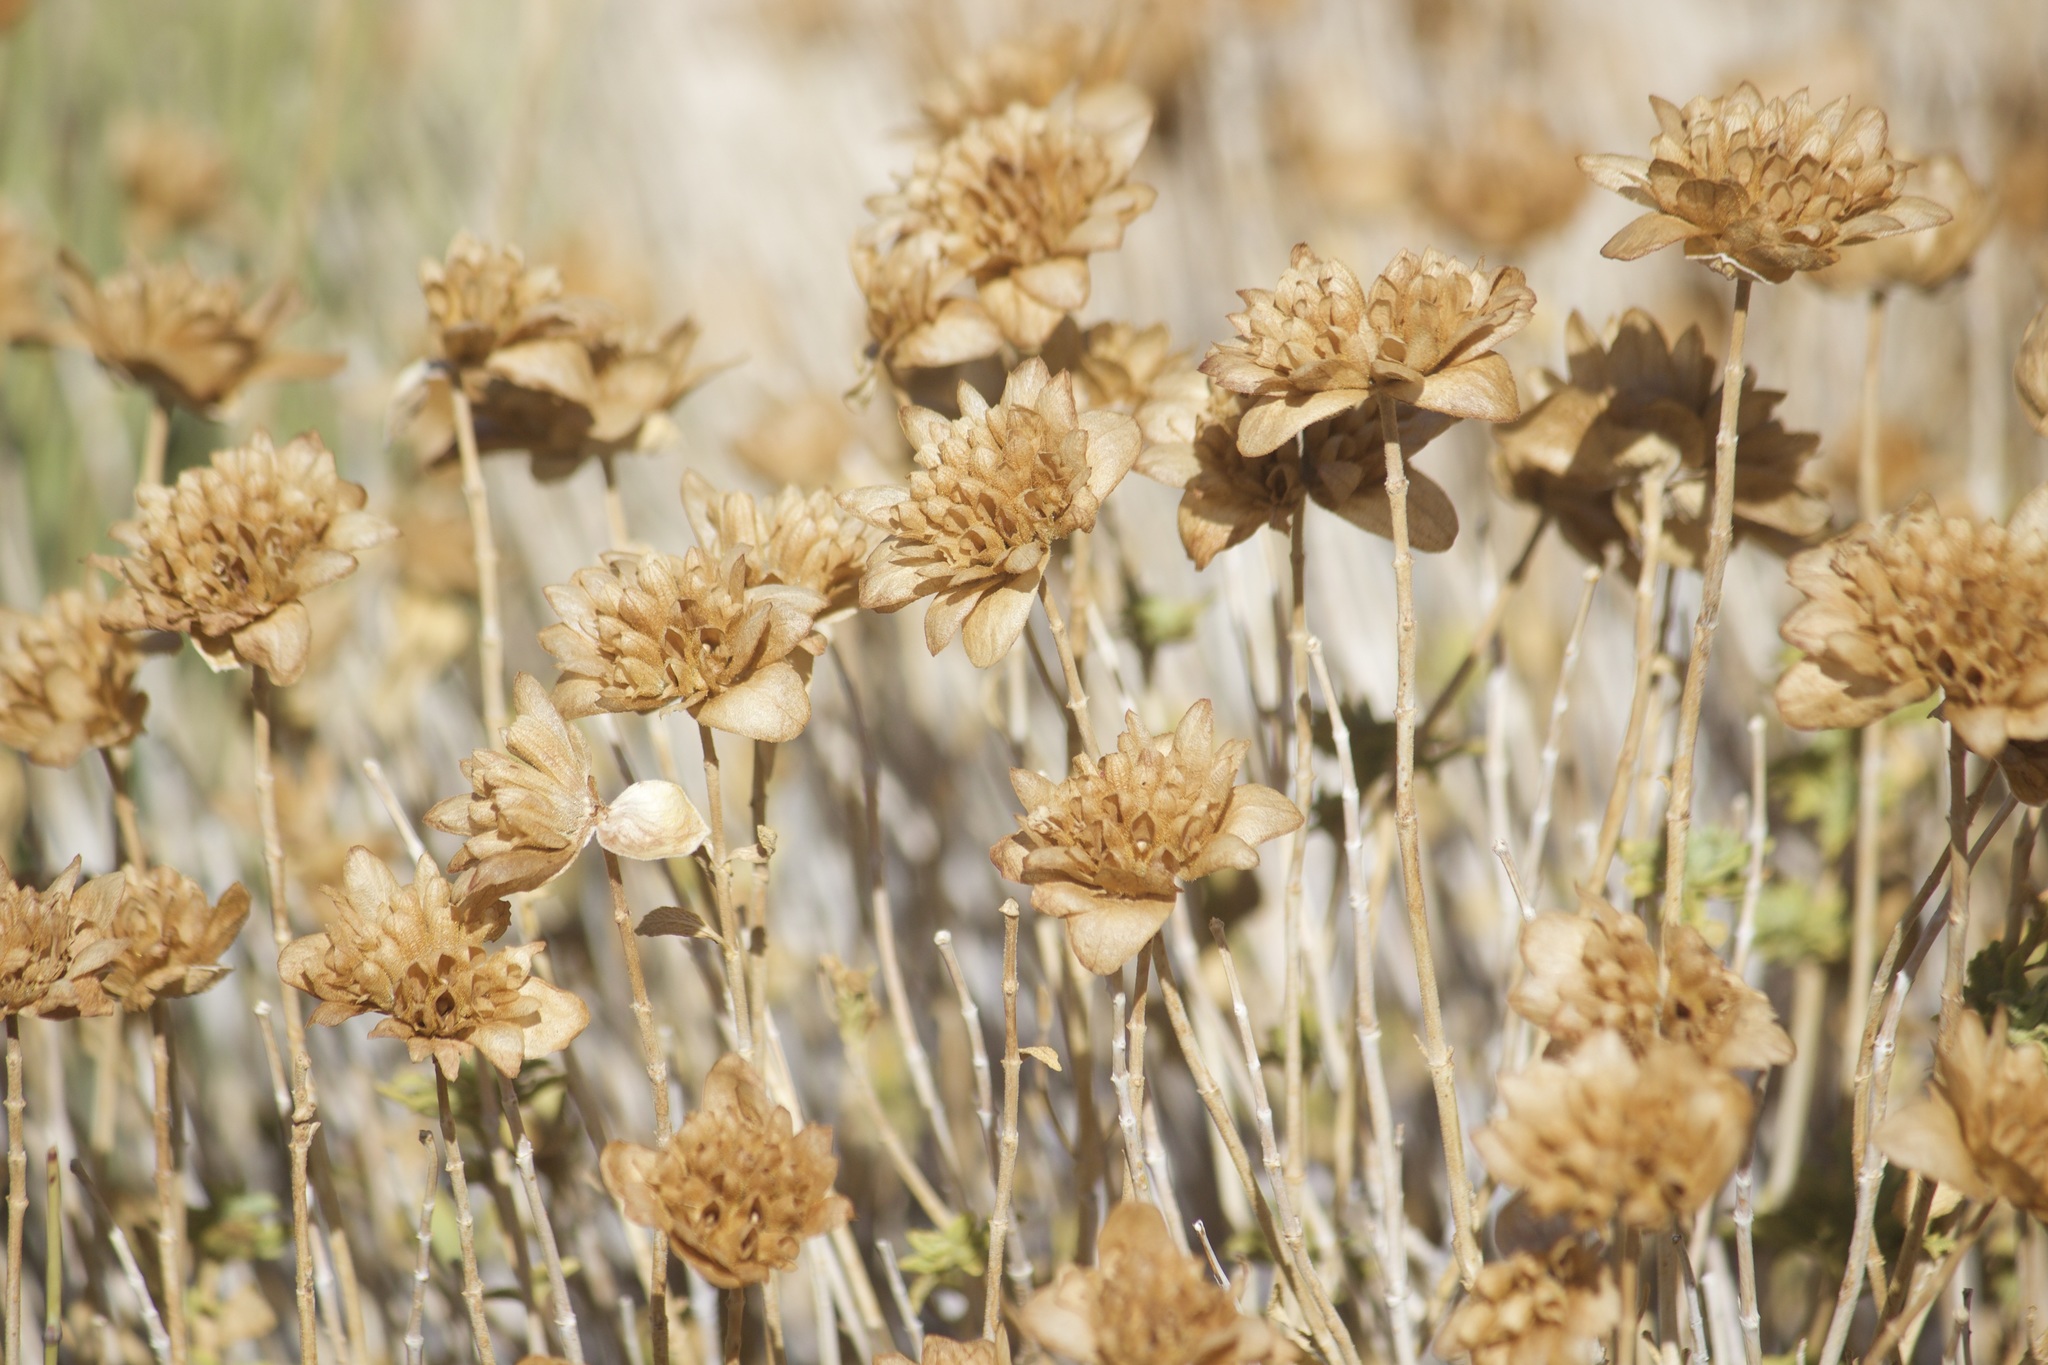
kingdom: Plantae
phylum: Tracheophyta
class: Magnoliopsida
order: Lamiales
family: Lamiaceae
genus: Salvia
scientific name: Salvia mohavensis
